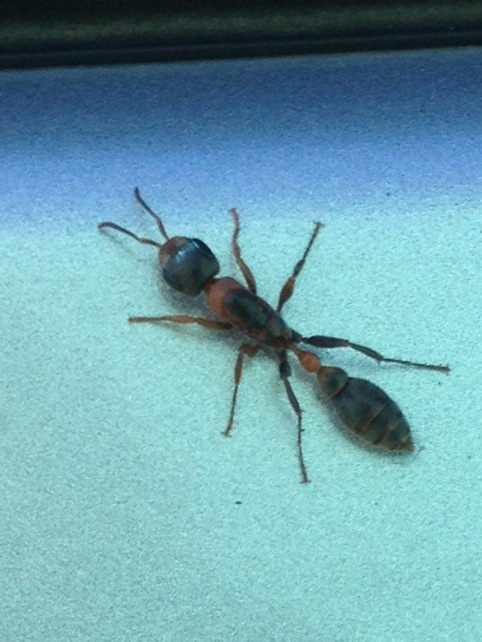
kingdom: Animalia
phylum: Arthropoda
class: Insecta
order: Hymenoptera
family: Formicidae
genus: Pseudomyrmex
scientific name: Pseudomyrmex gracilis
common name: Graceful twig ant
